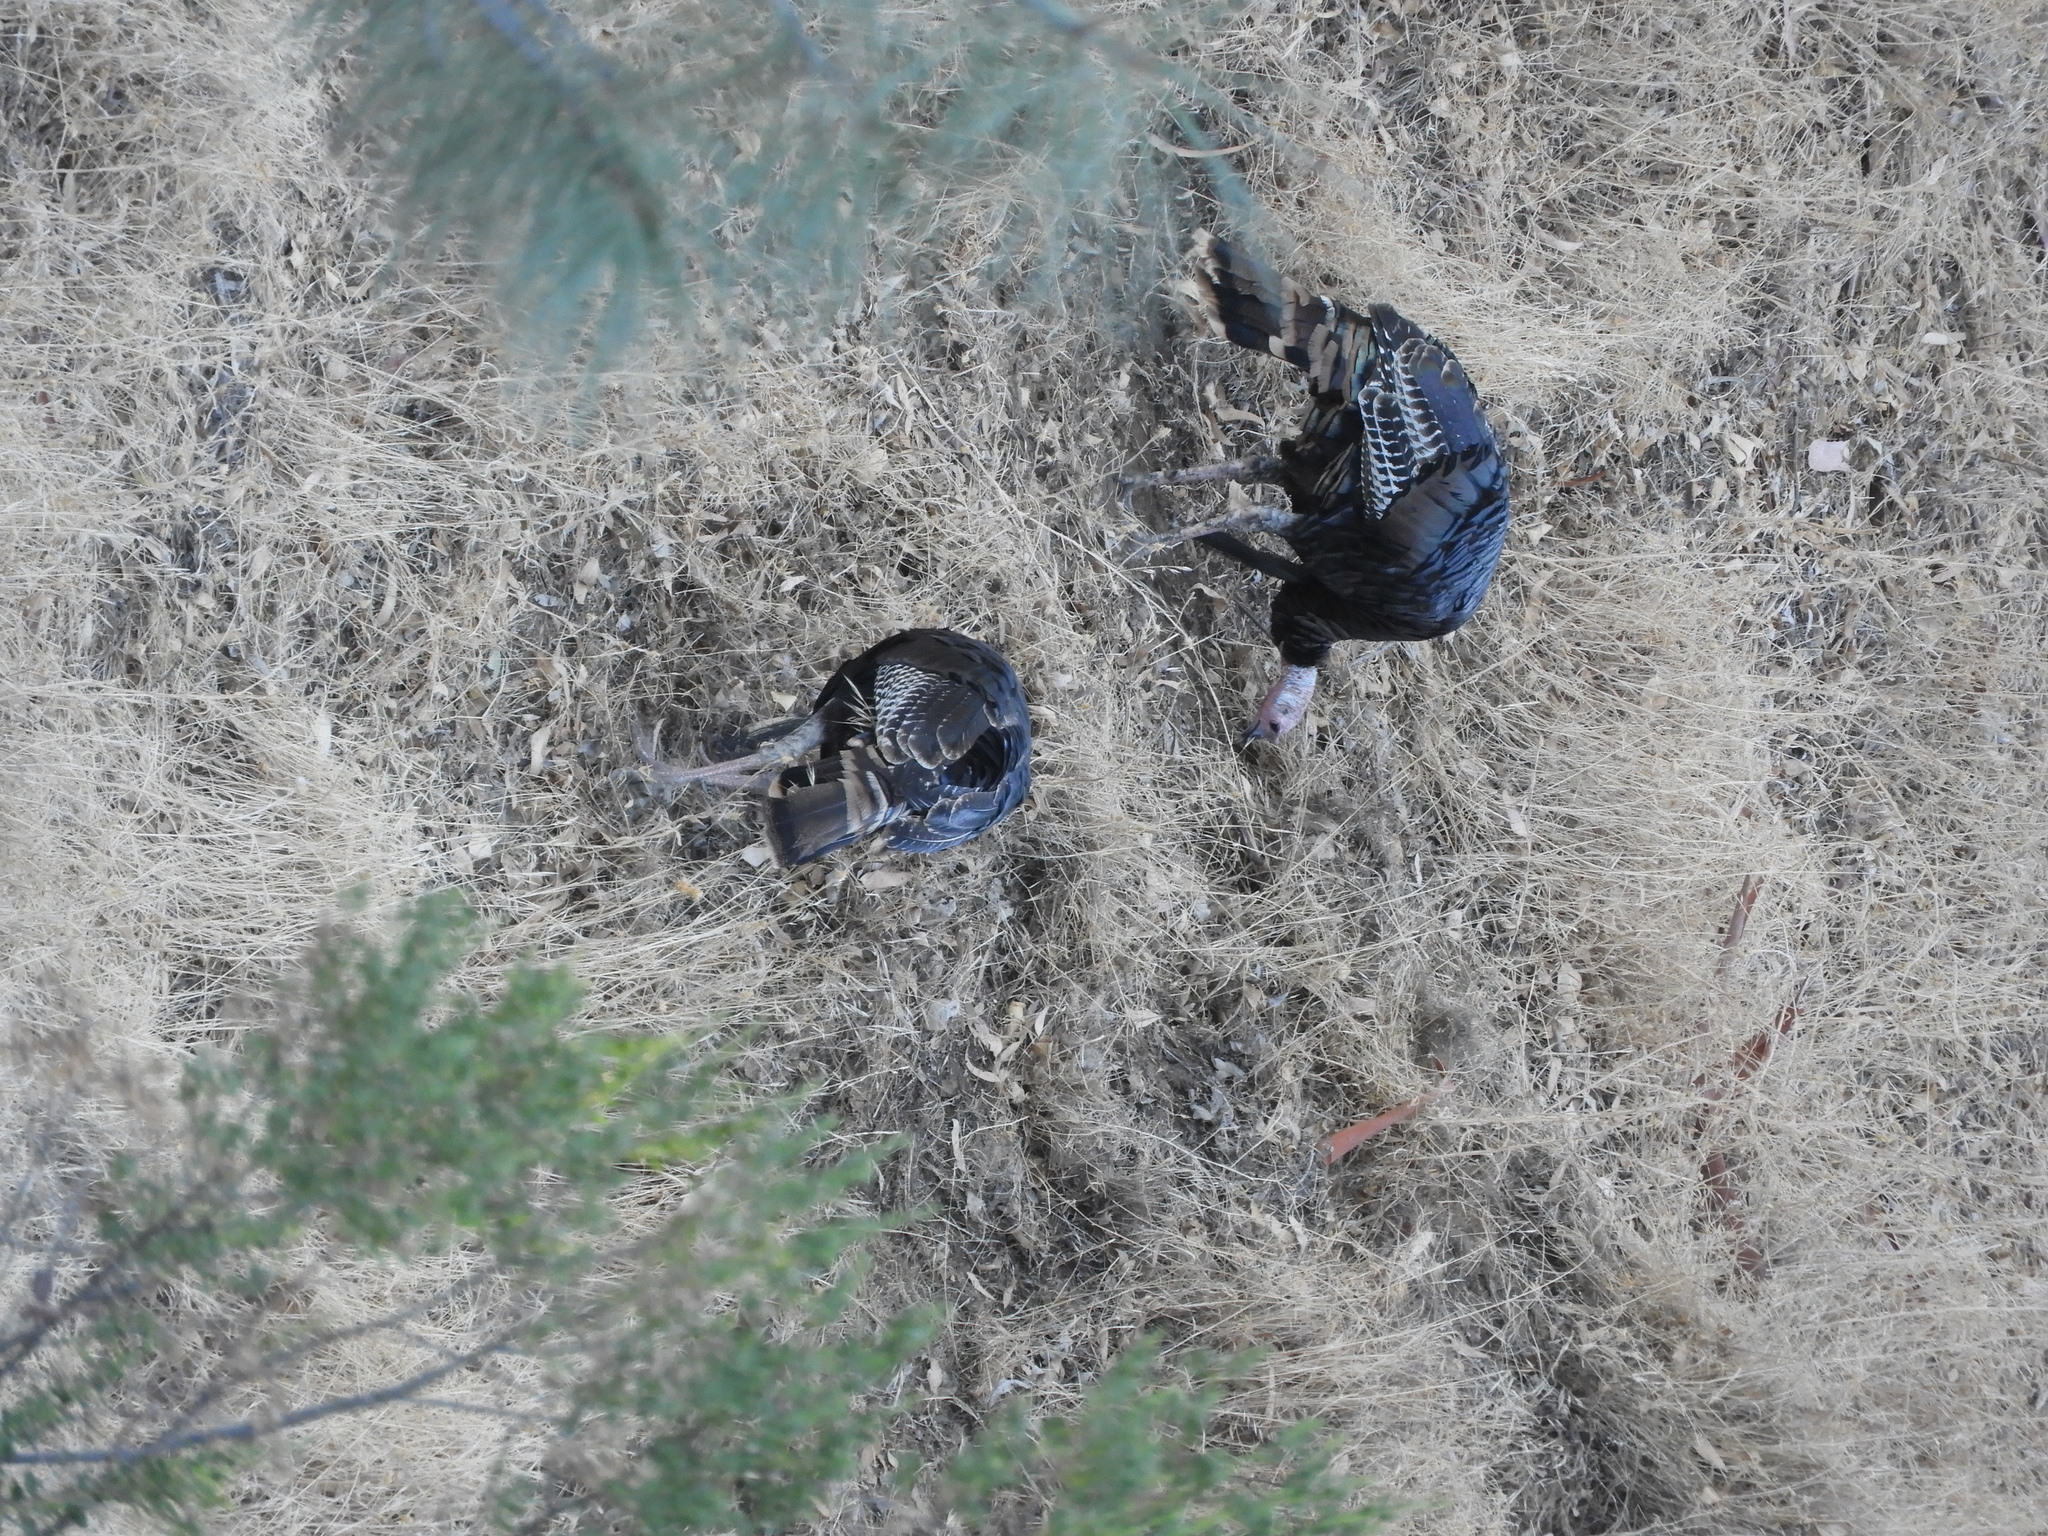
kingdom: Animalia
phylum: Chordata
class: Aves
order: Galliformes
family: Phasianidae
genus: Meleagris
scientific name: Meleagris gallopavo
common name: Wild turkey
